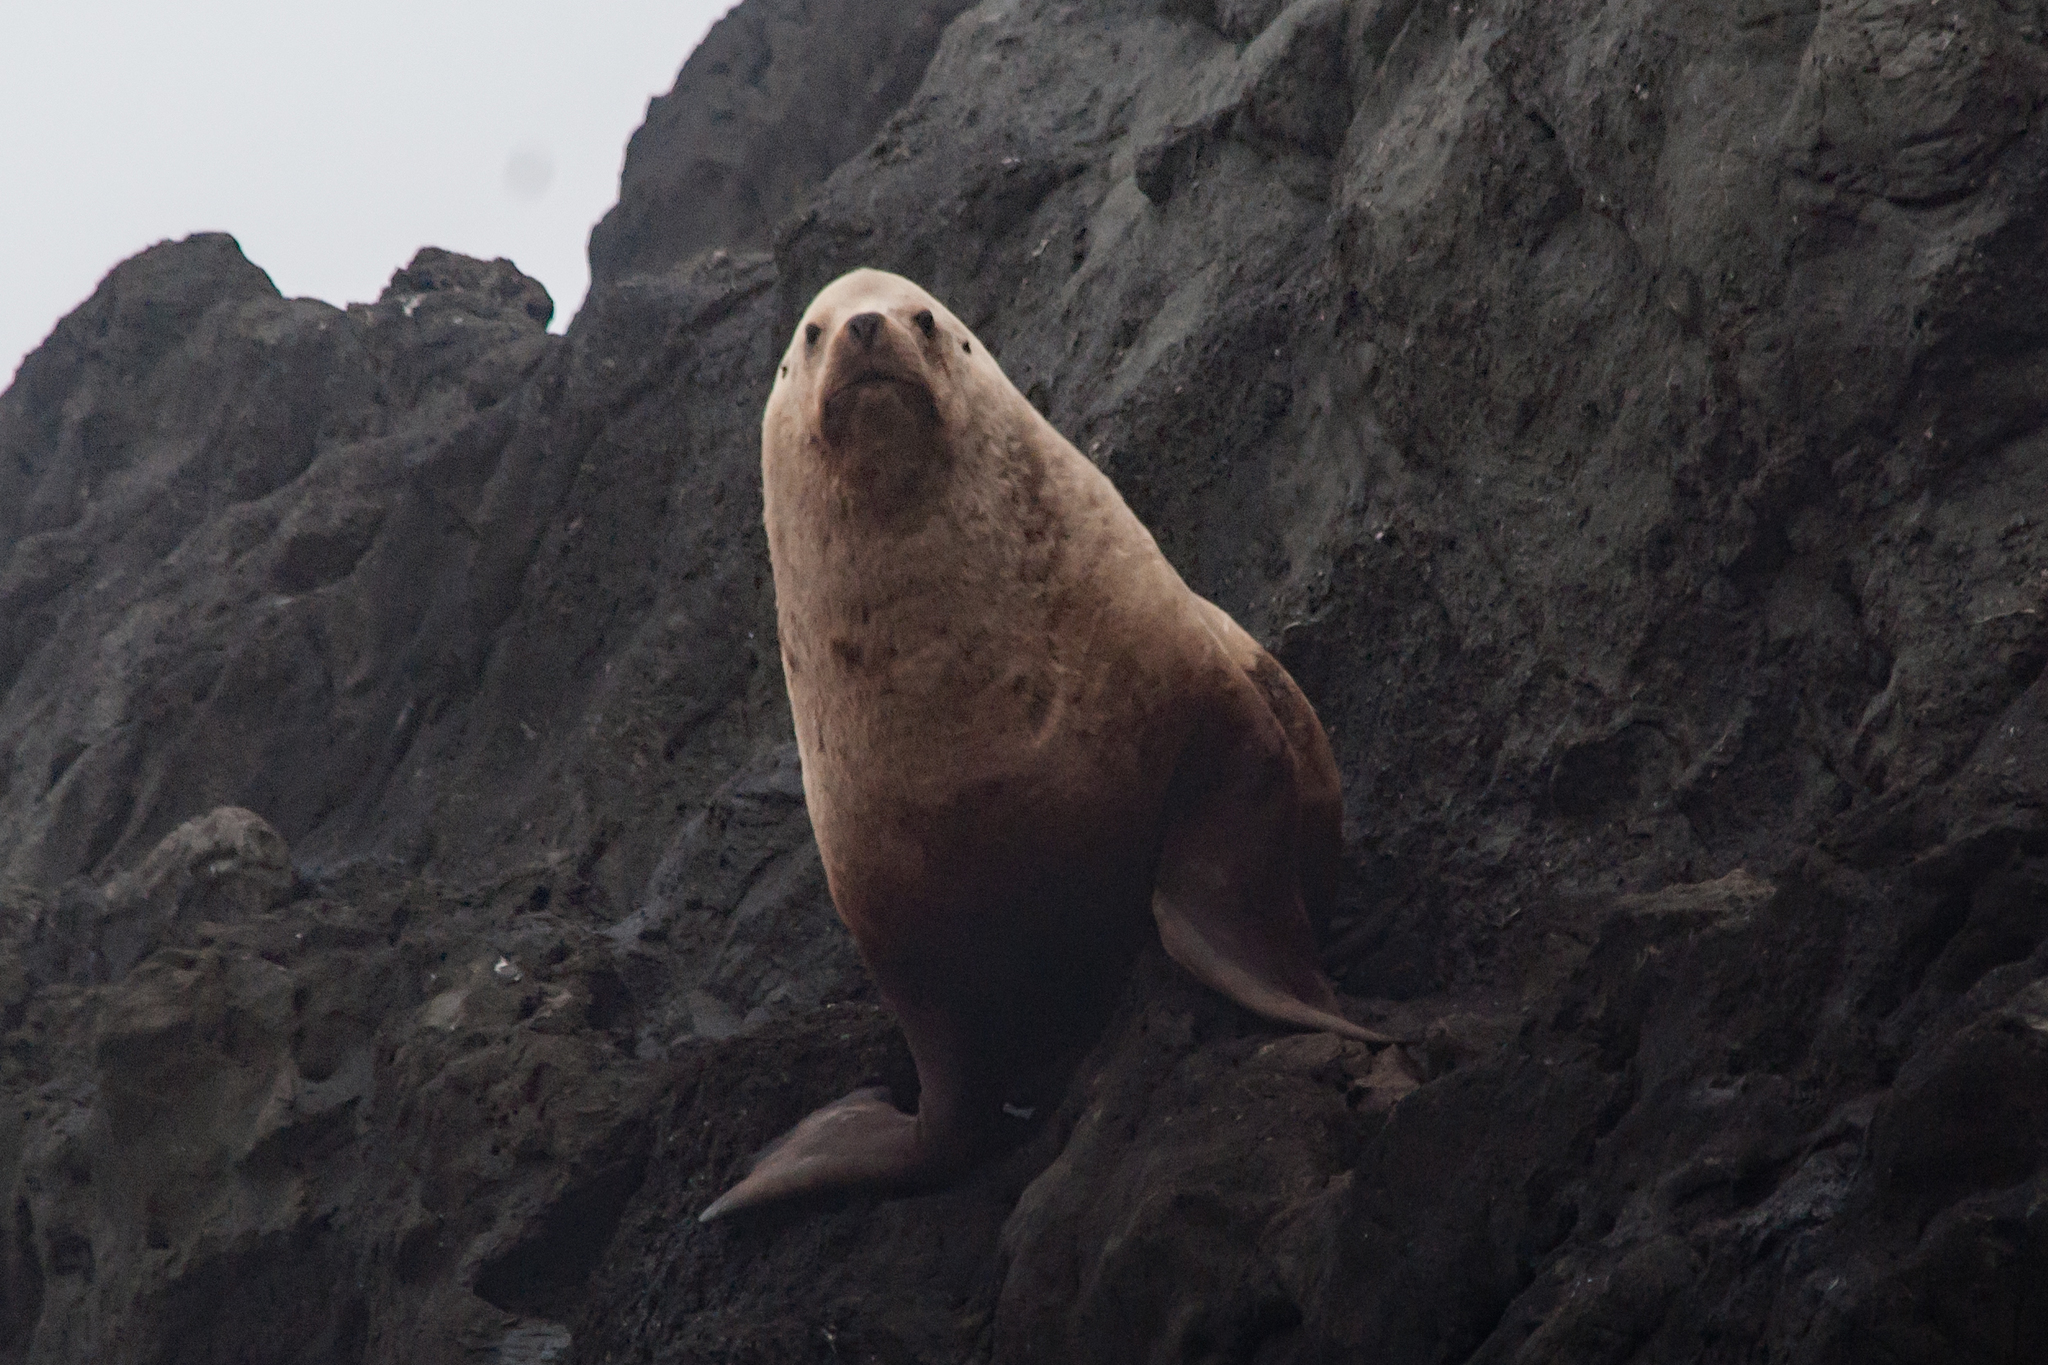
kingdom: Animalia
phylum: Chordata
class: Mammalia
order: Carnivora
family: Otariidae
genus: Eumetopias
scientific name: Eumetopias jubatus
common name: Steller sea lion
